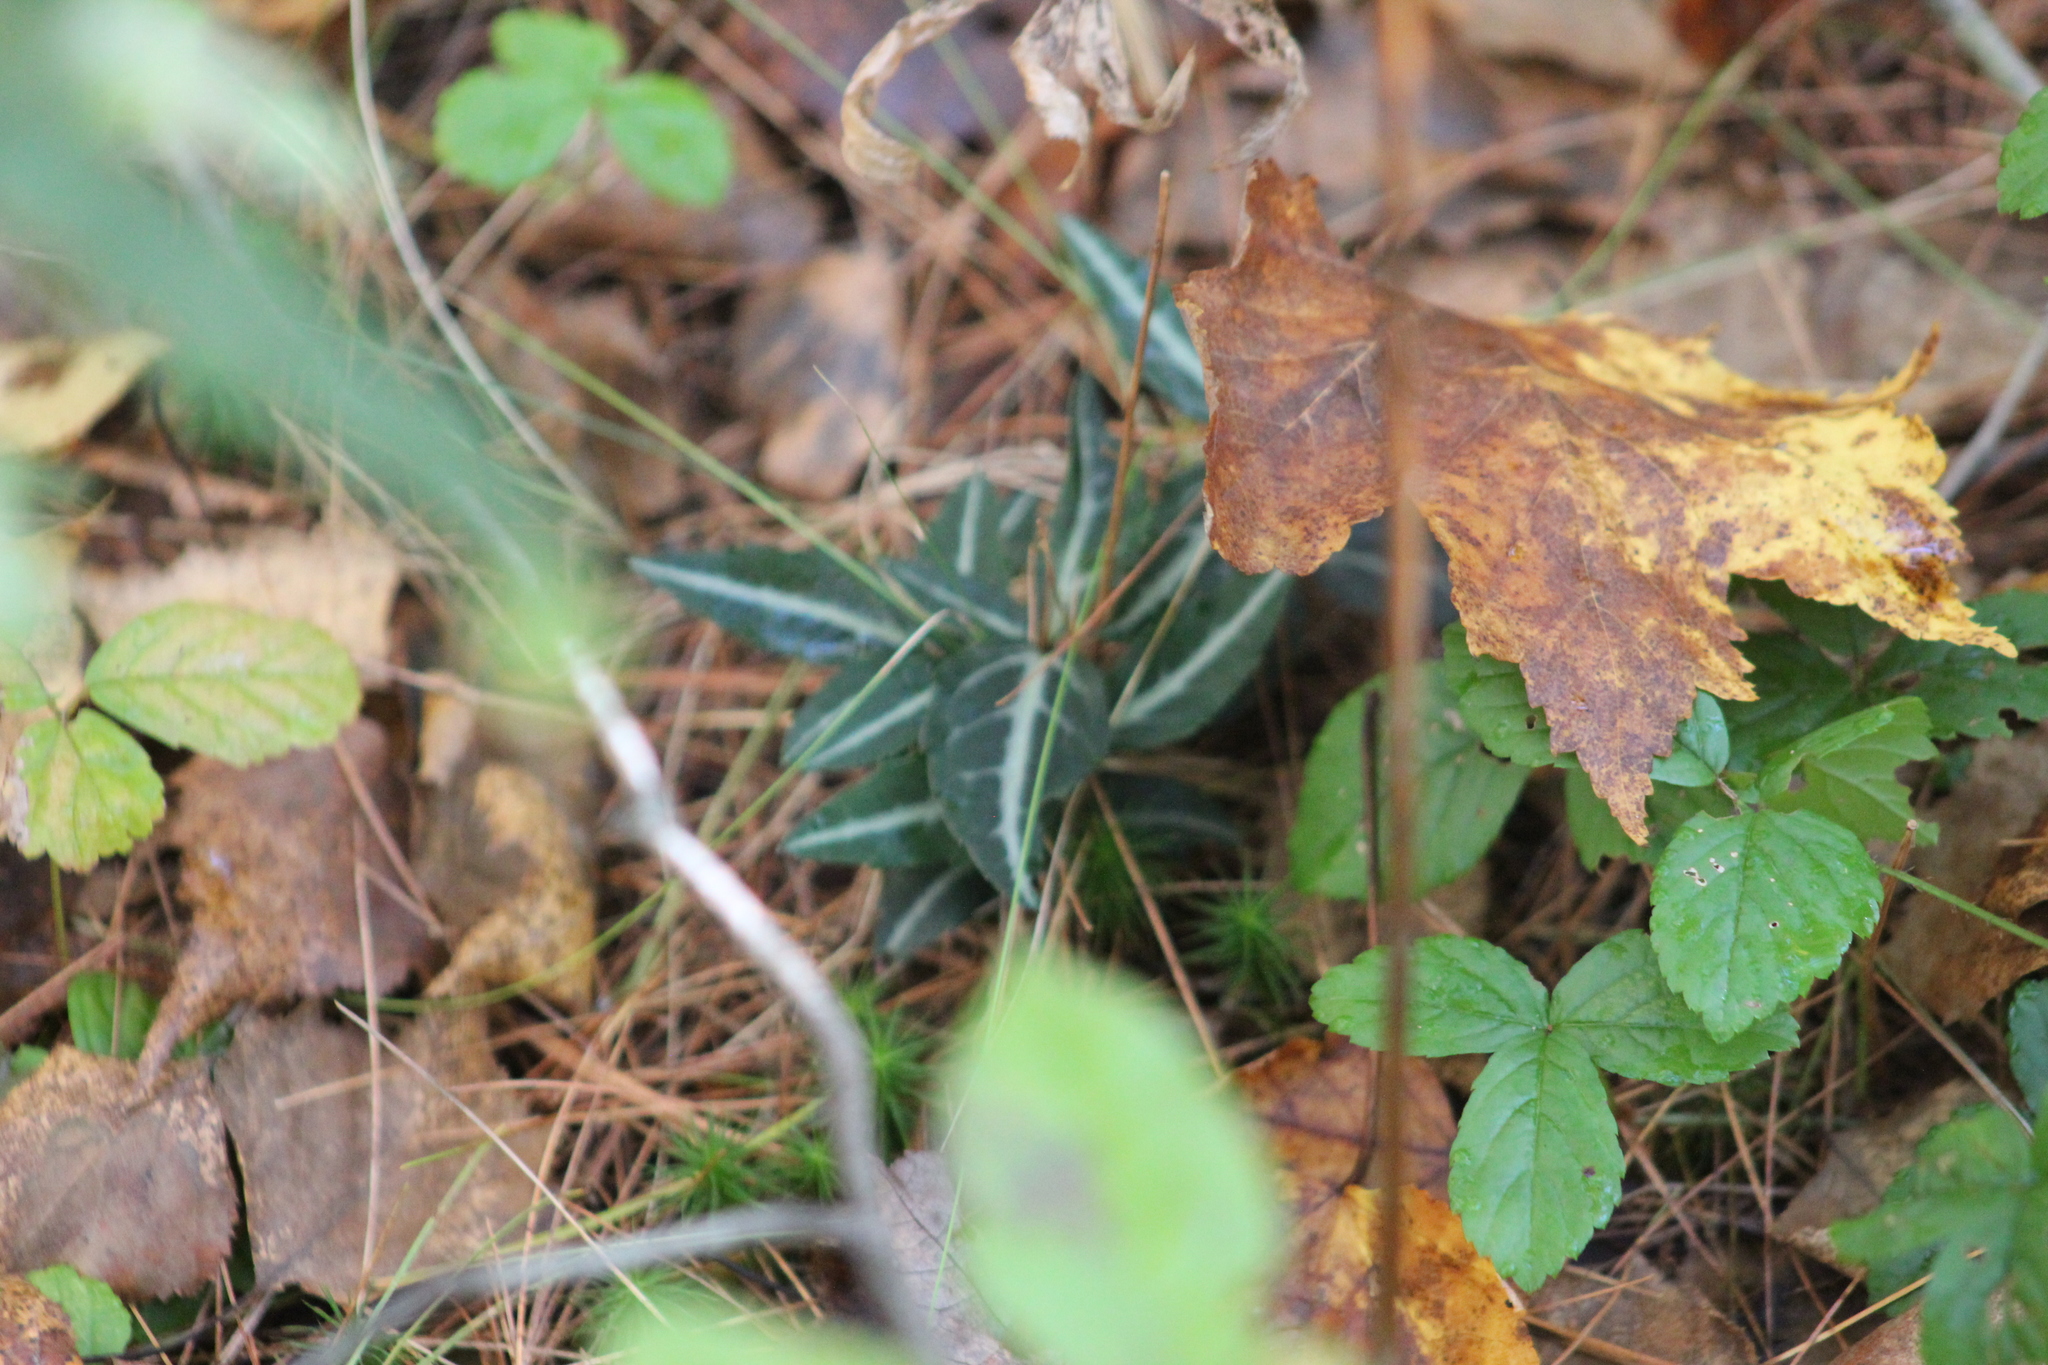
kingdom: Plantae
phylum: Tracheophyta
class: Magnoliopsida
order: Ericales
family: Ericaceae
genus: Chimaphila
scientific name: Chimaphila maculata
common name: Spotted pipsissewa
